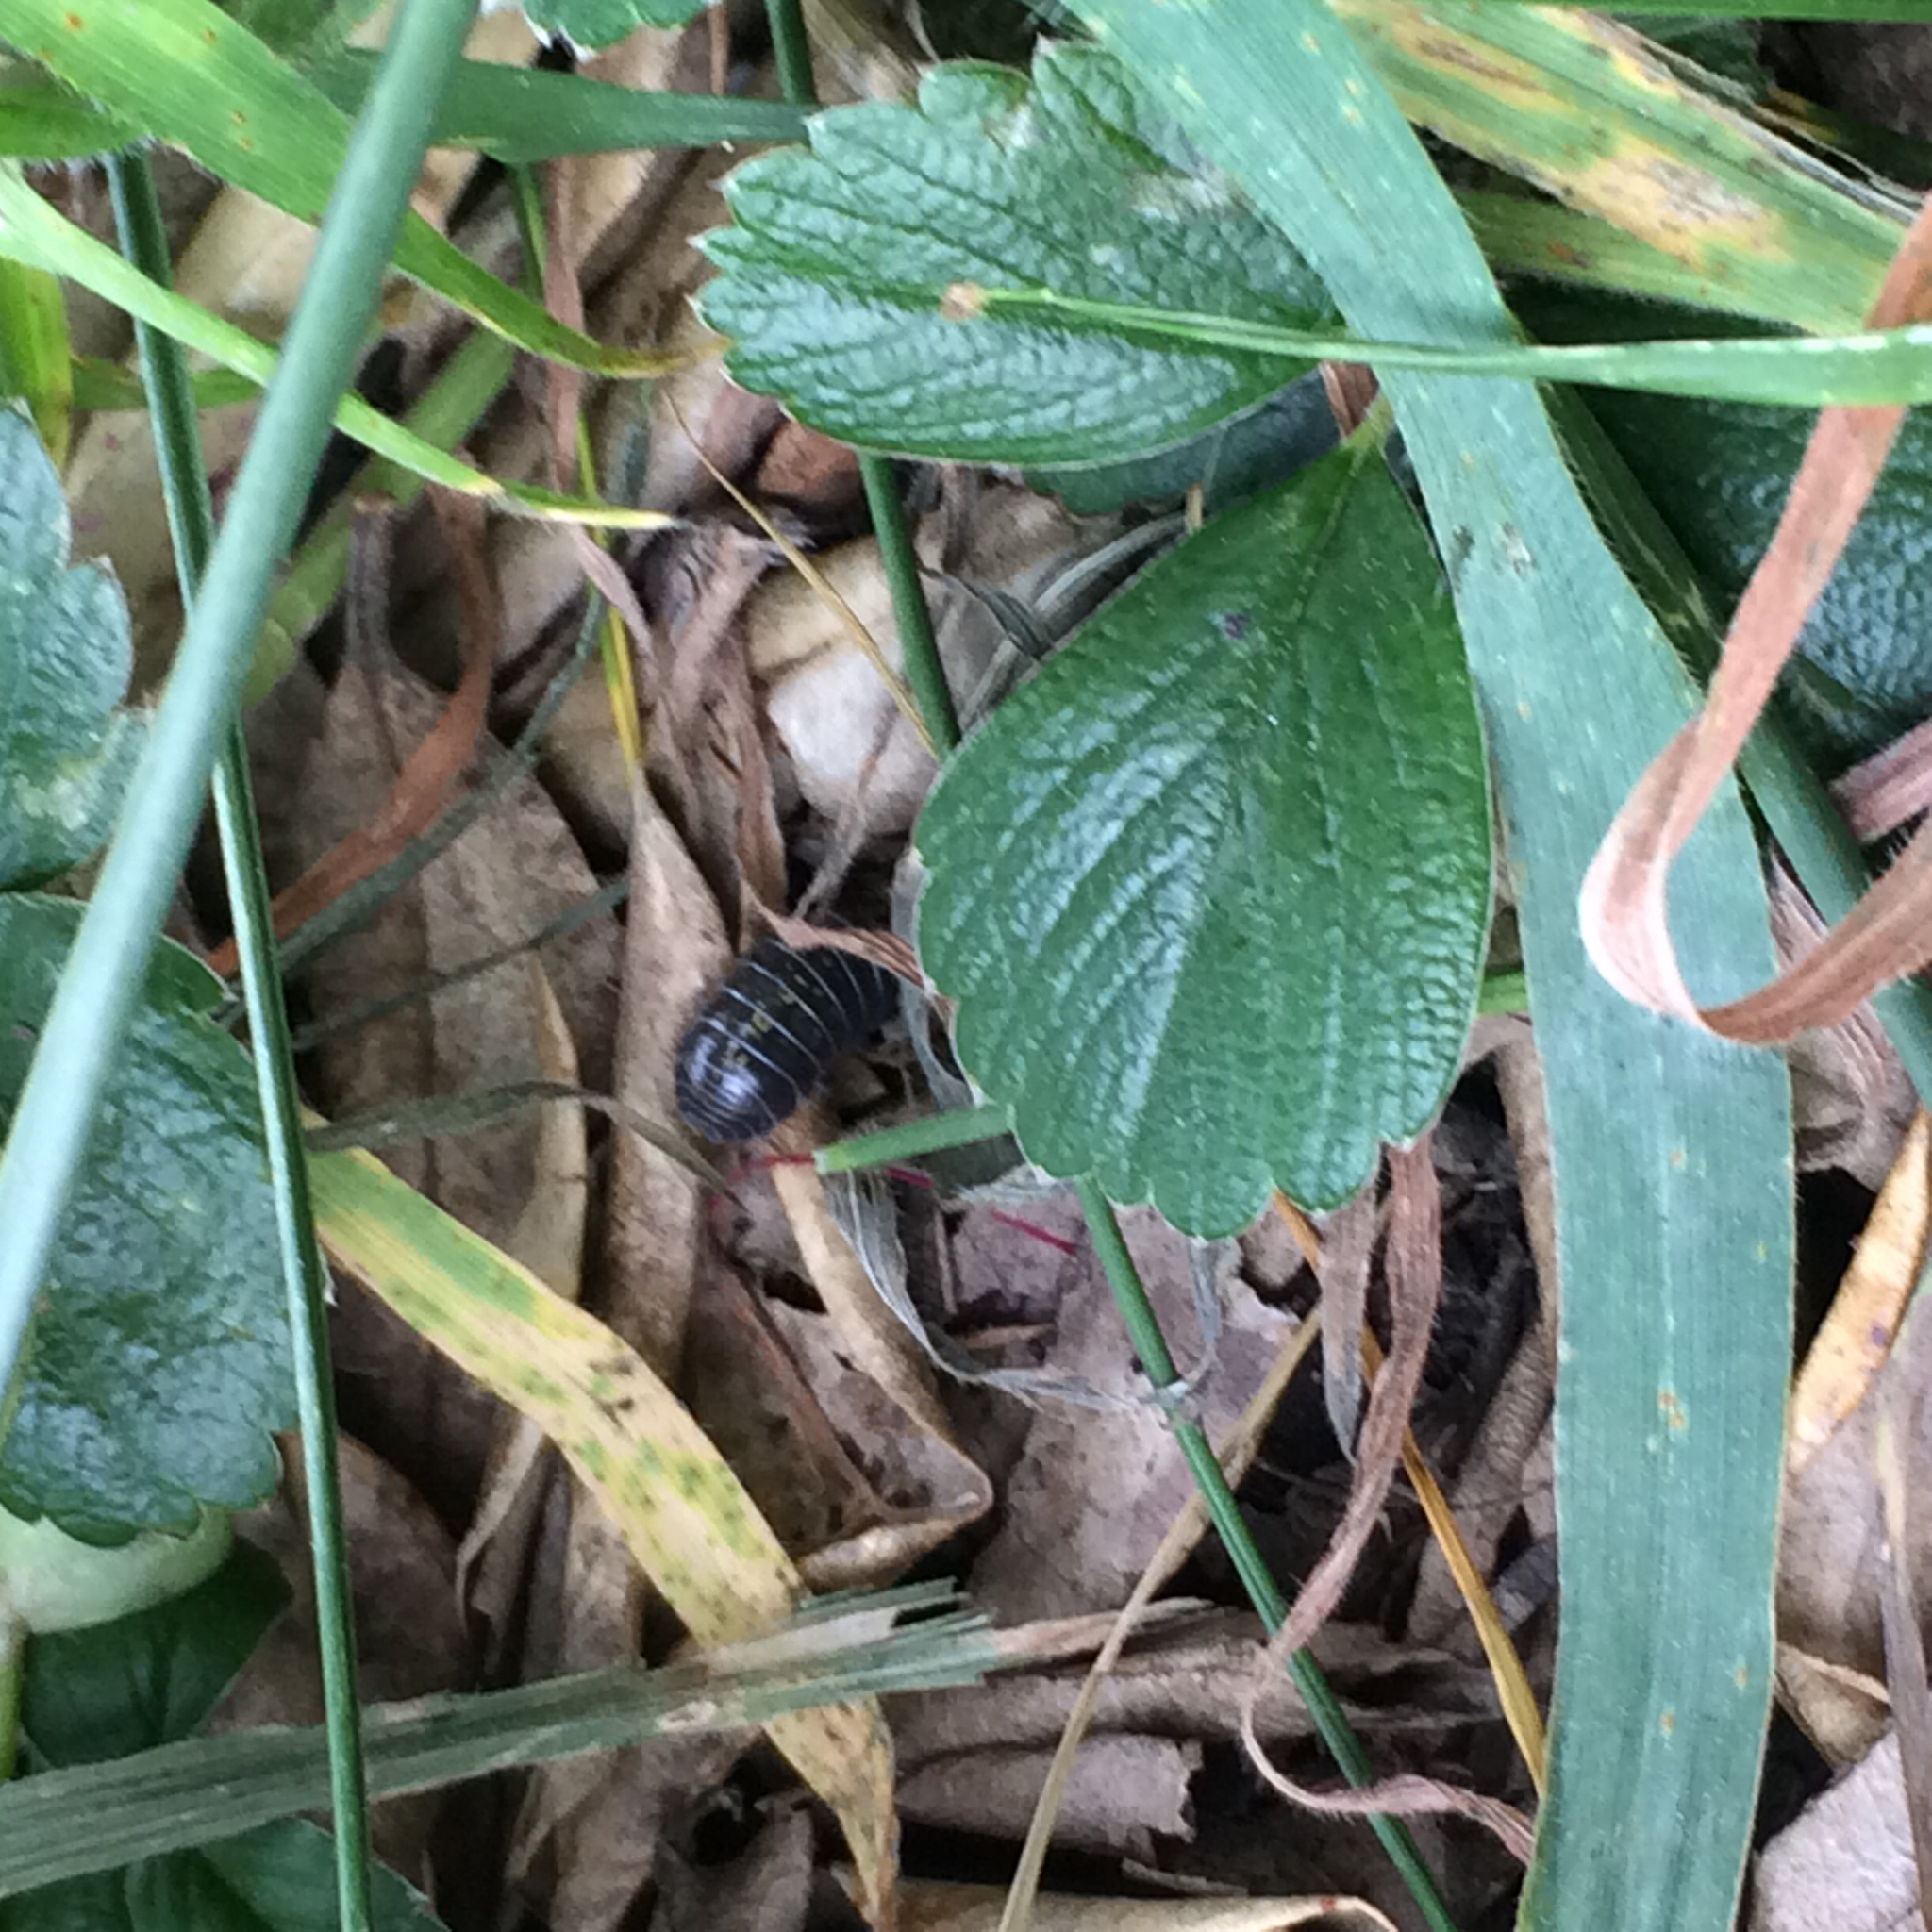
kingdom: Animalia
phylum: Arthropoda
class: Malacostraca
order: Isopoda
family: Armadillidiidae
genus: Armadillidium
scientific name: Armadillidium vulgare
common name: Common pill woodlouse
